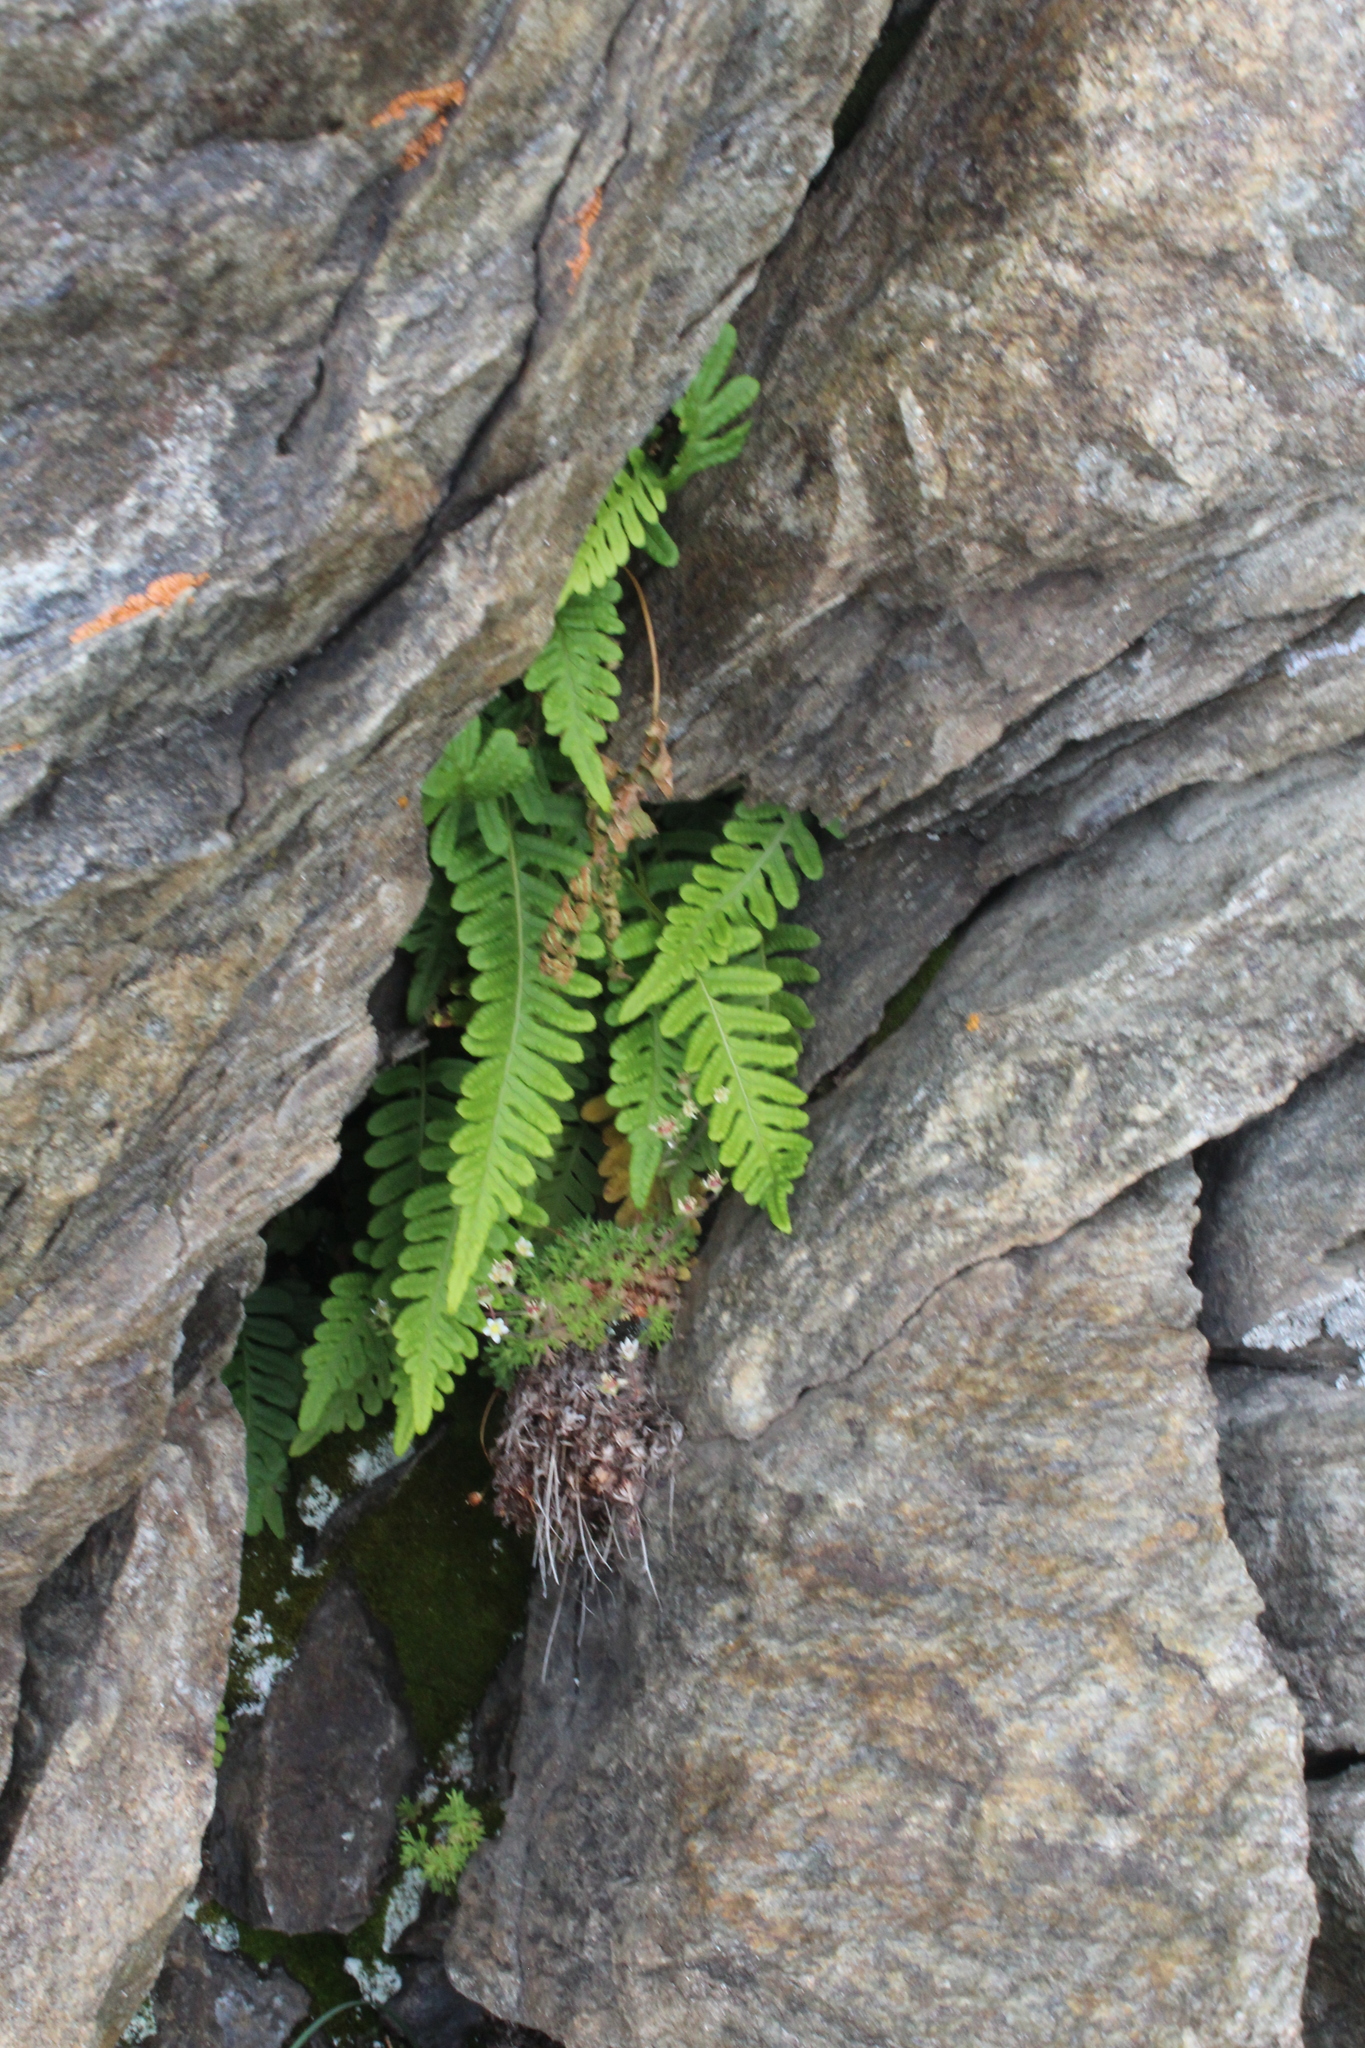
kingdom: Plantae
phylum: Tracheophyta
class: Polypodiopsida
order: Polypodiales
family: Polypodiaceae
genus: Polypodium
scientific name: Polypodium vulgare
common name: Common polypody
